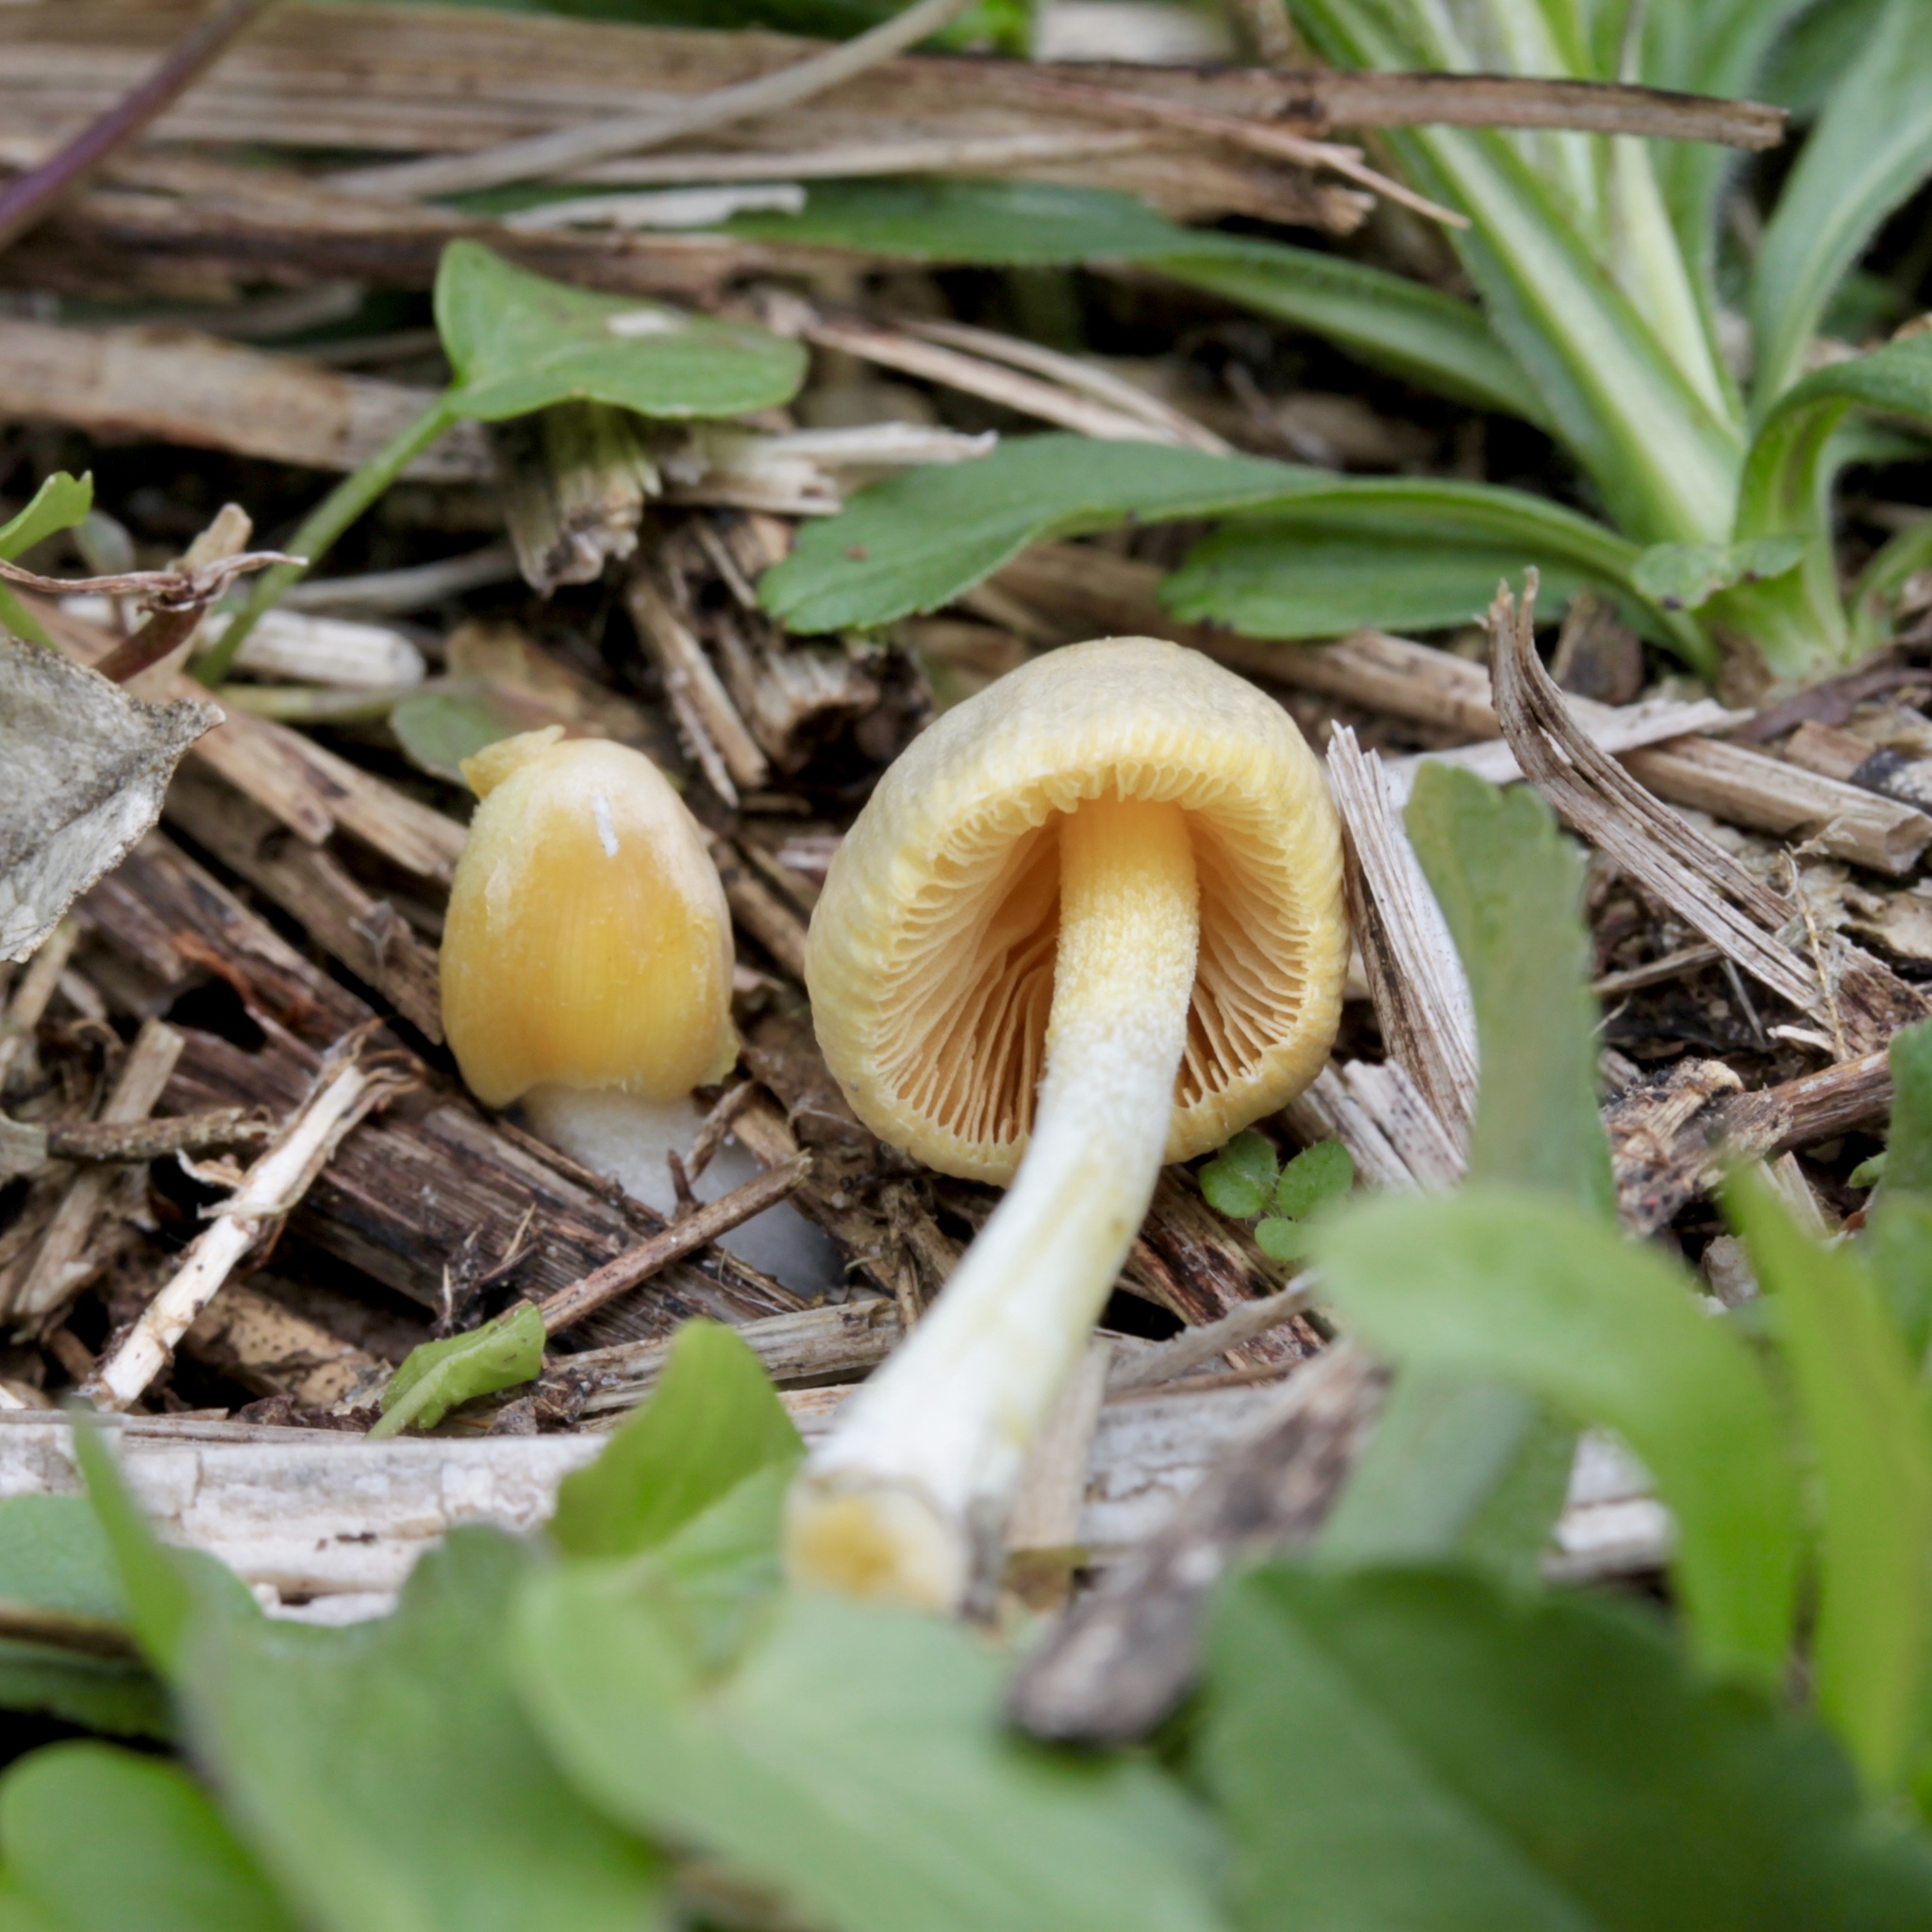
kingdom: Fungi
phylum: Basidiomycota
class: Agaricomycetes
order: Agaricales
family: Bolbitiaceae
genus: Bolbitius
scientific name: Bolbitius titubans
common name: Yellow fieldcap
